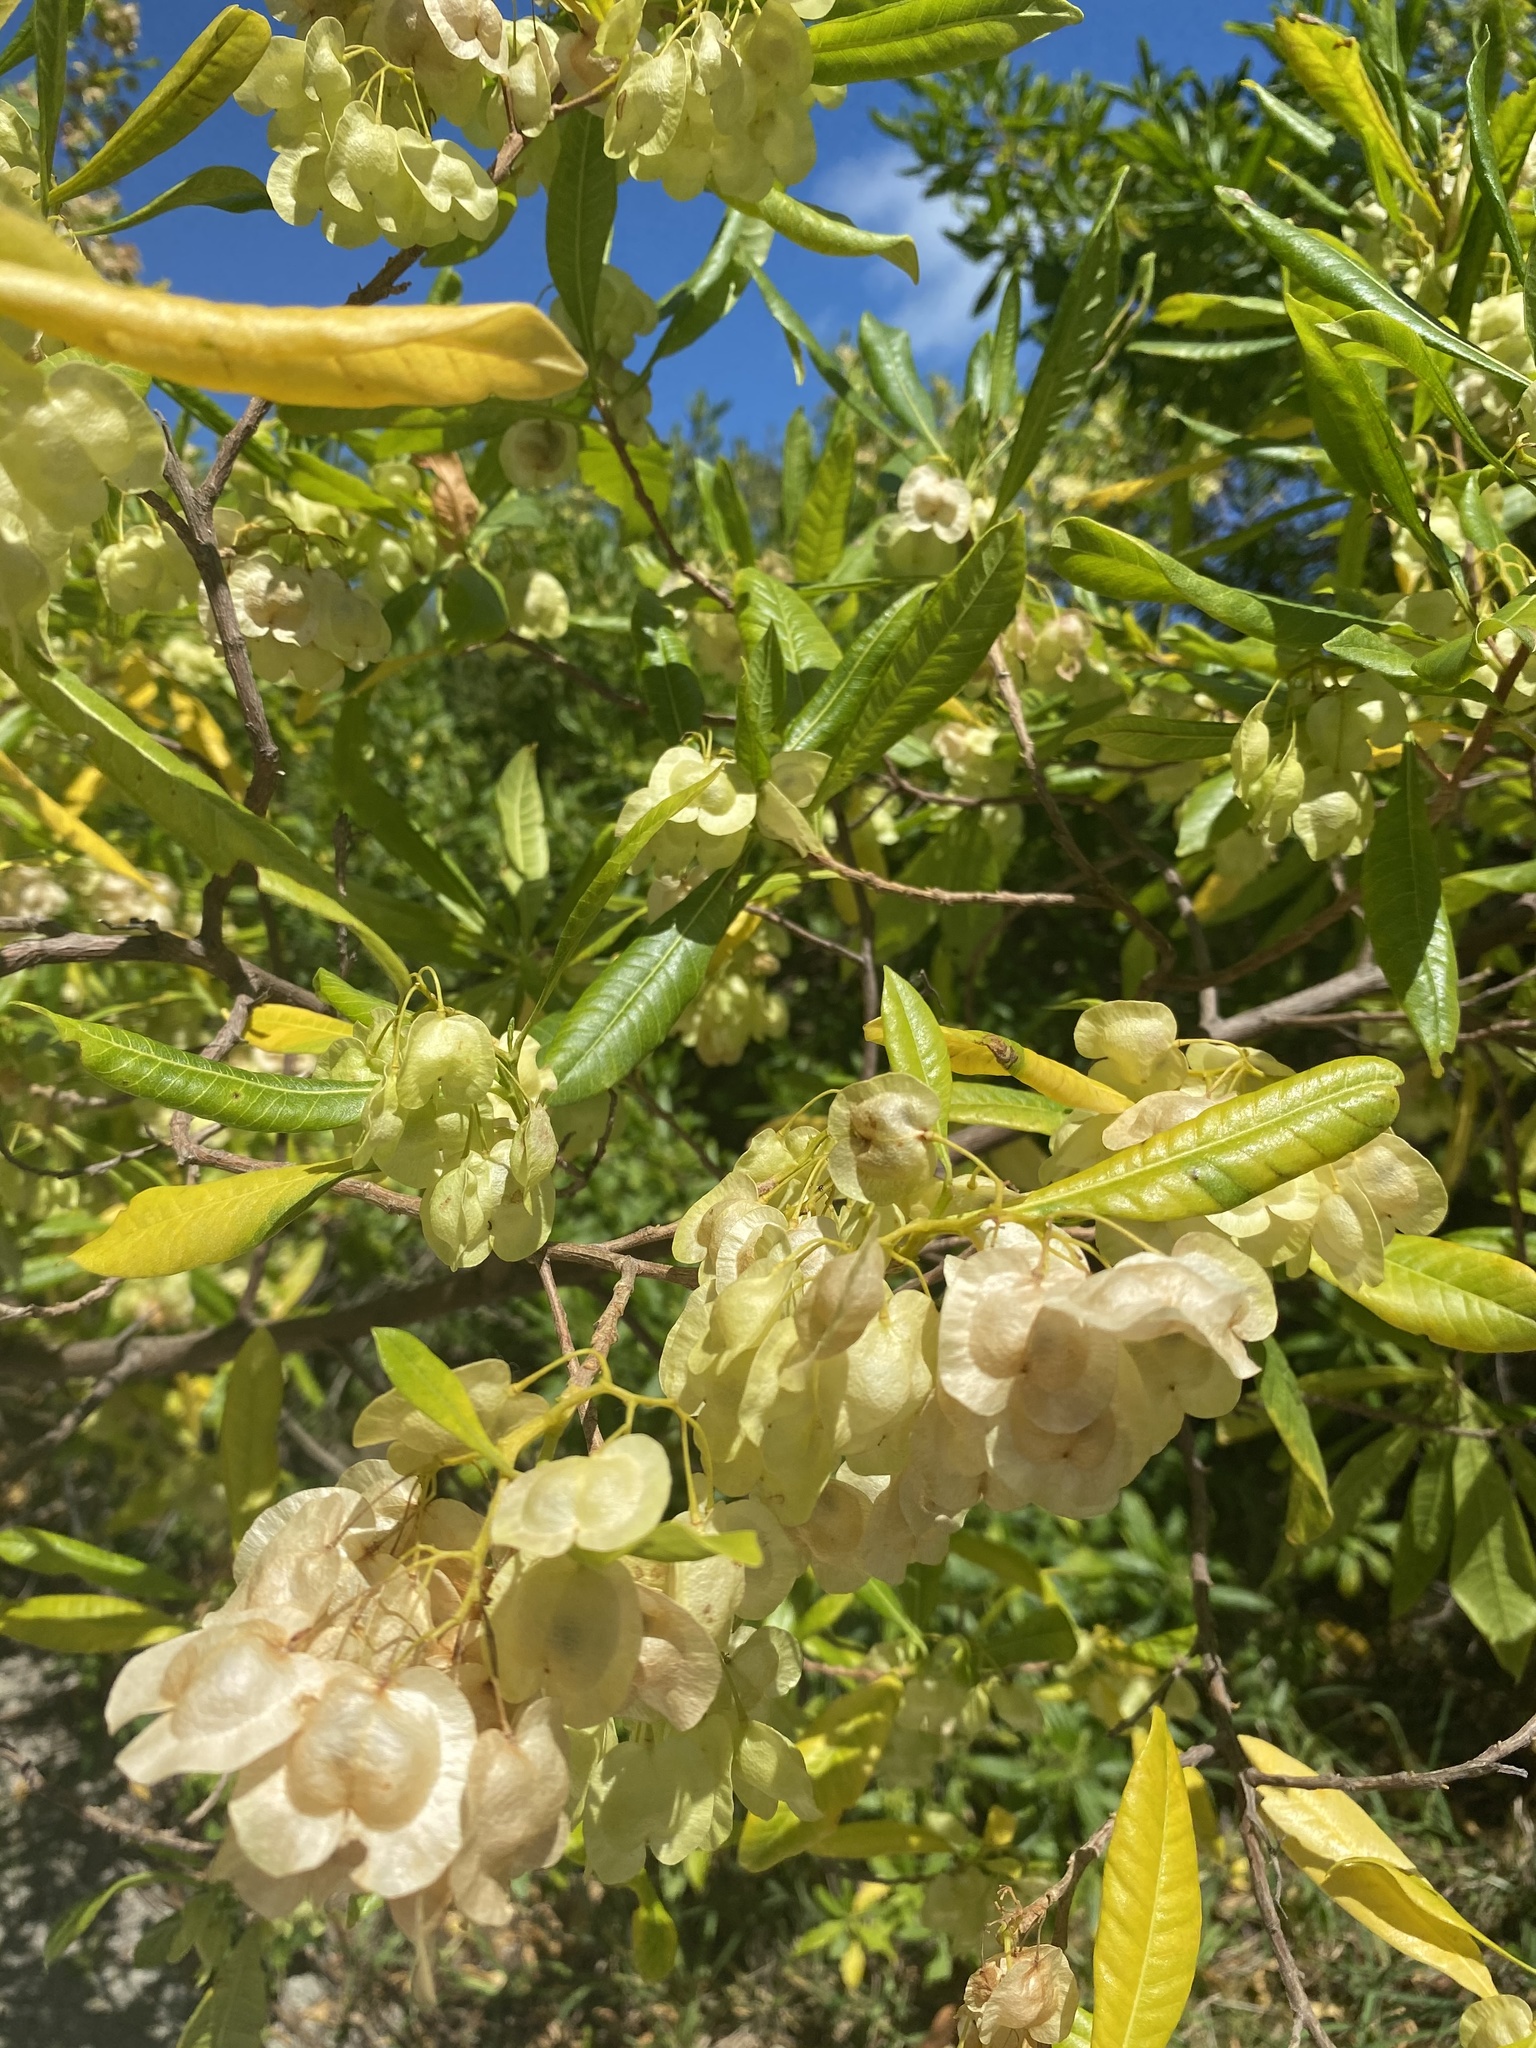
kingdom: Plantae
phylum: Tracheophyta
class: Magnoliopsida
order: Sapindales
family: Sapindaceae
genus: Dodonaea
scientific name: Dodonaea viscosa
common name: Hopbush
